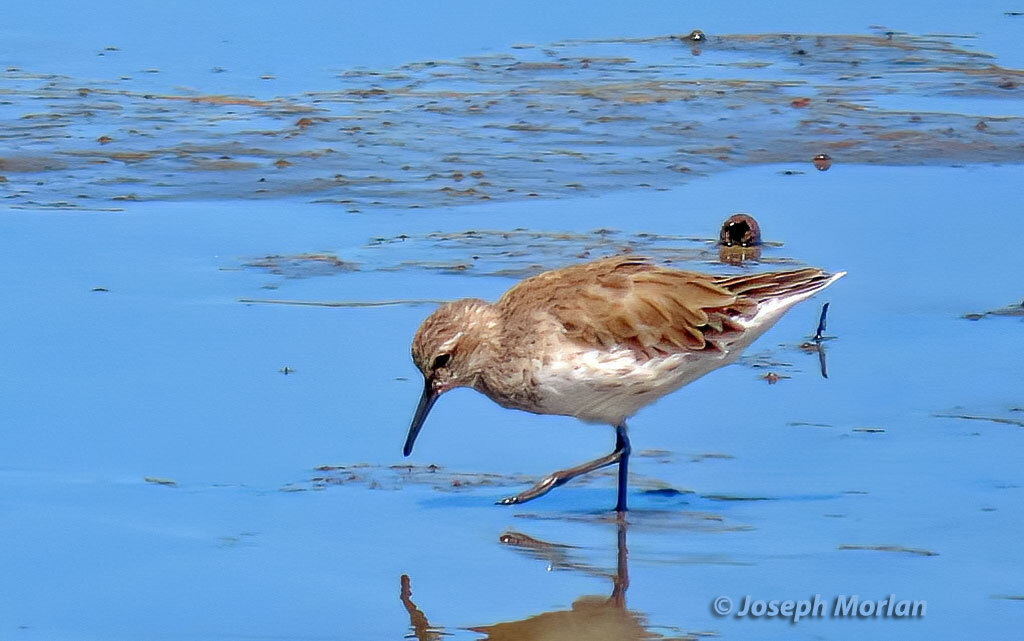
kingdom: Animalia
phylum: Chordata
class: Aves
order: Charadriiformes
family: Scolopacidae
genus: Calidris
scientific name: Calidris fuscicollis
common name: White-rumped sandpiper
